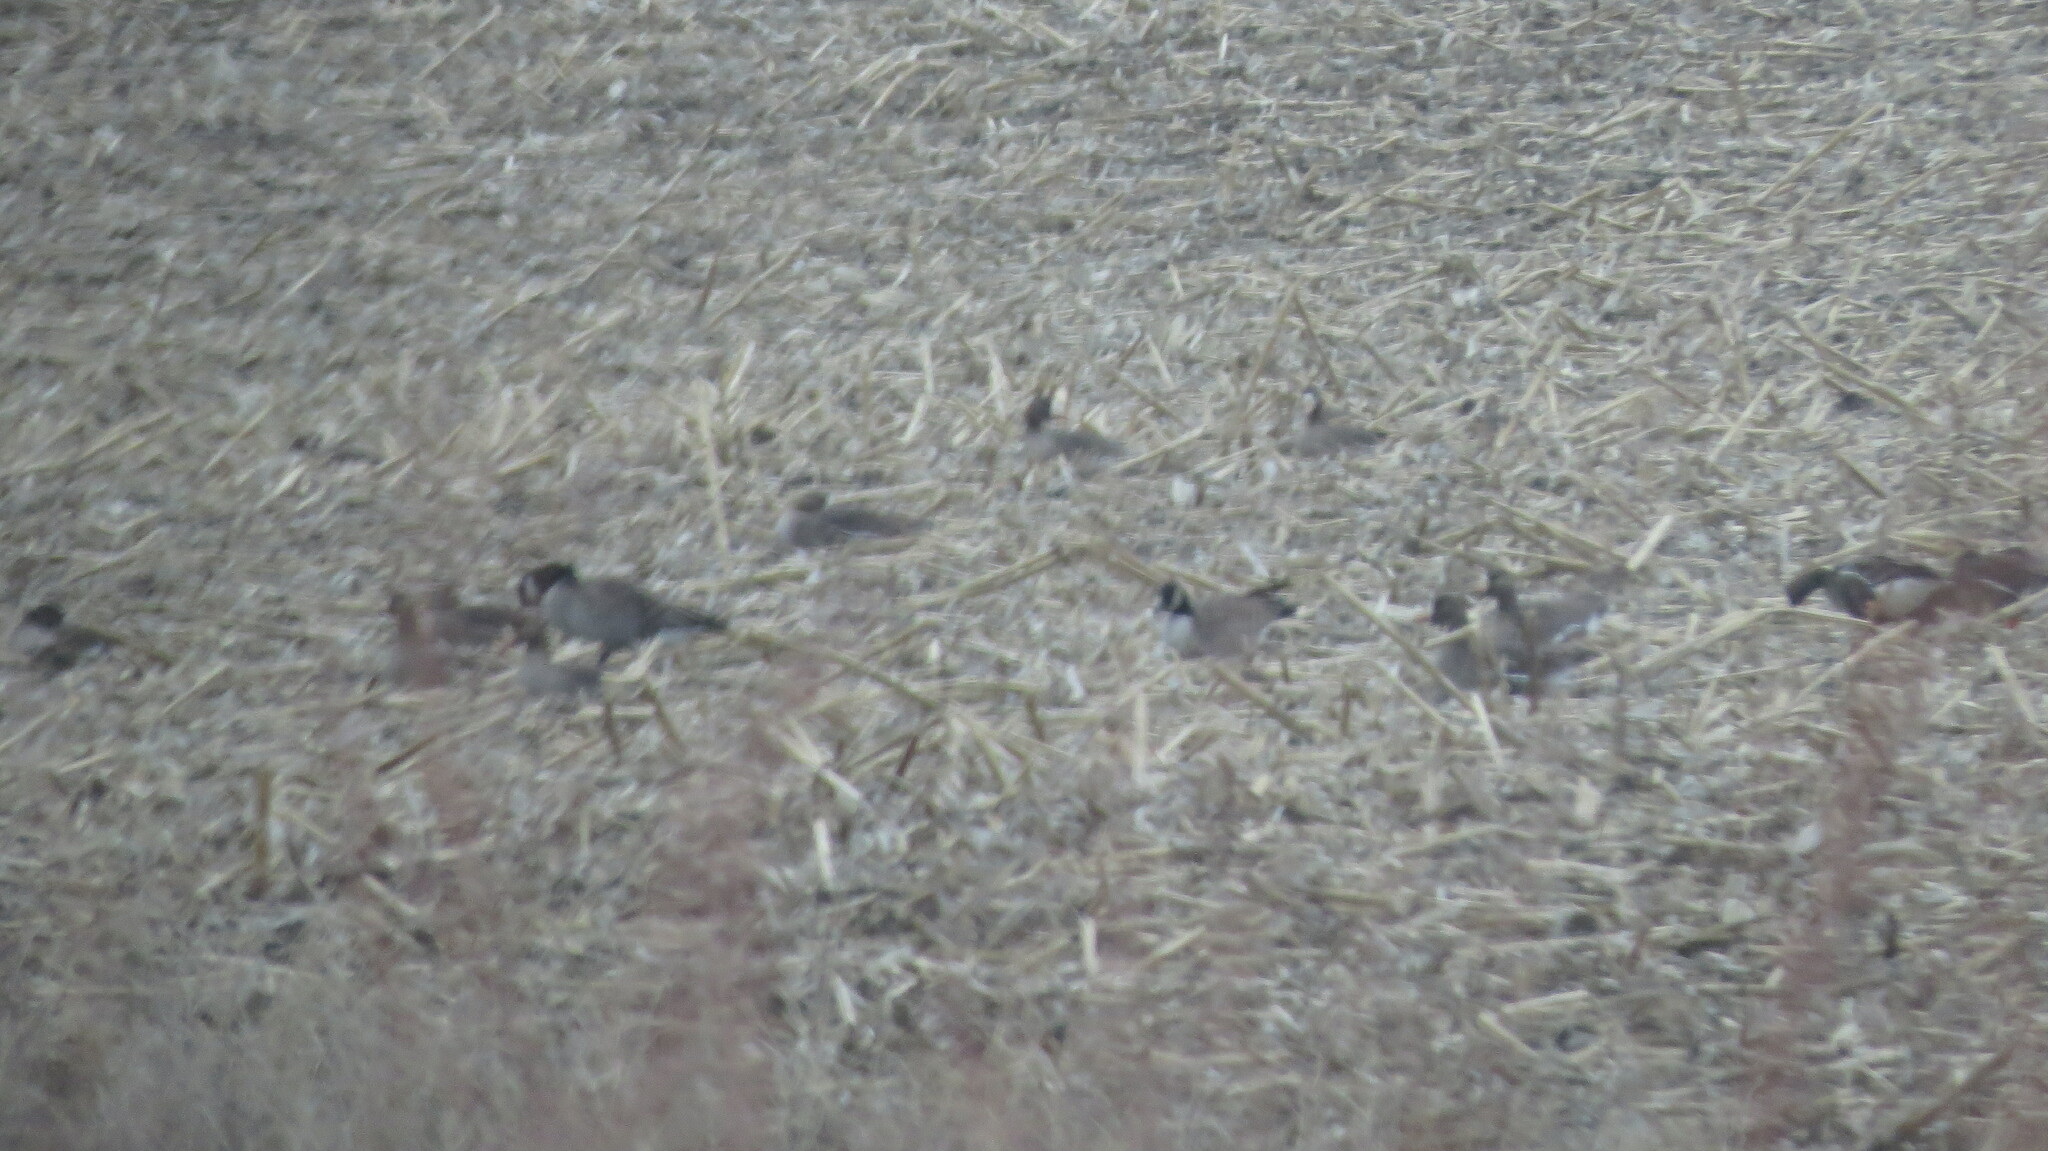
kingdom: Animalia
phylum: Chordata
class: Aves
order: Anseriformes
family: Anatidae
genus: Anser
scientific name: Anser albifrons
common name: Greater white-fronted goose
